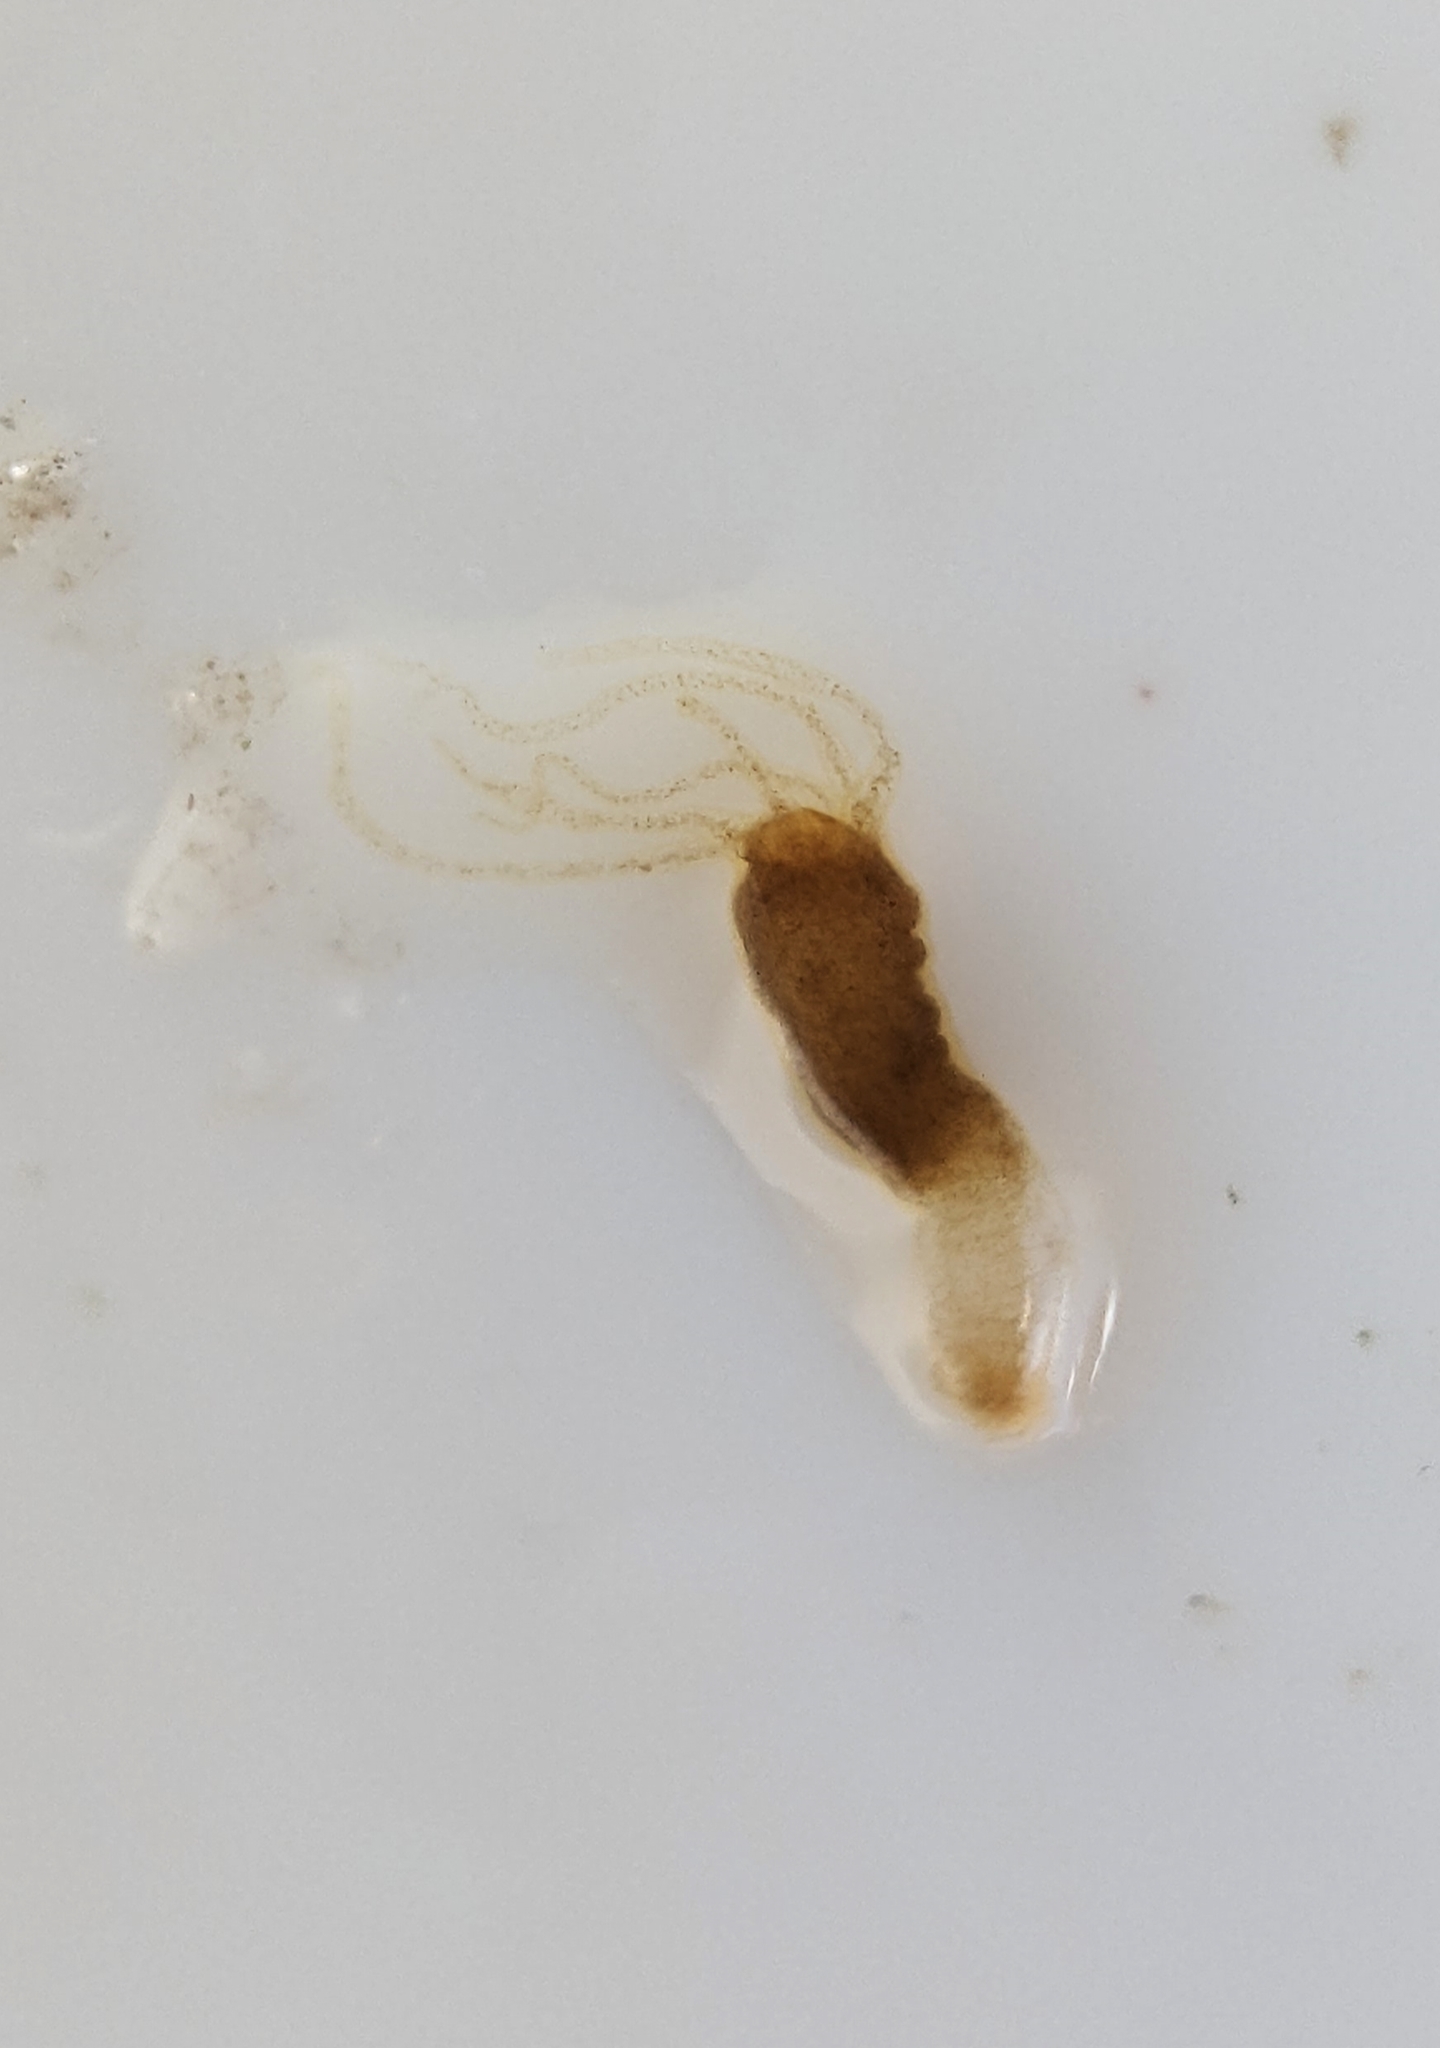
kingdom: Animalia
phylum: Cnidaria
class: Hydrozoa
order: Anthoathecata
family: Hydridae
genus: Hydra
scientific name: Hydra oligactis
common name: Brown hydra
